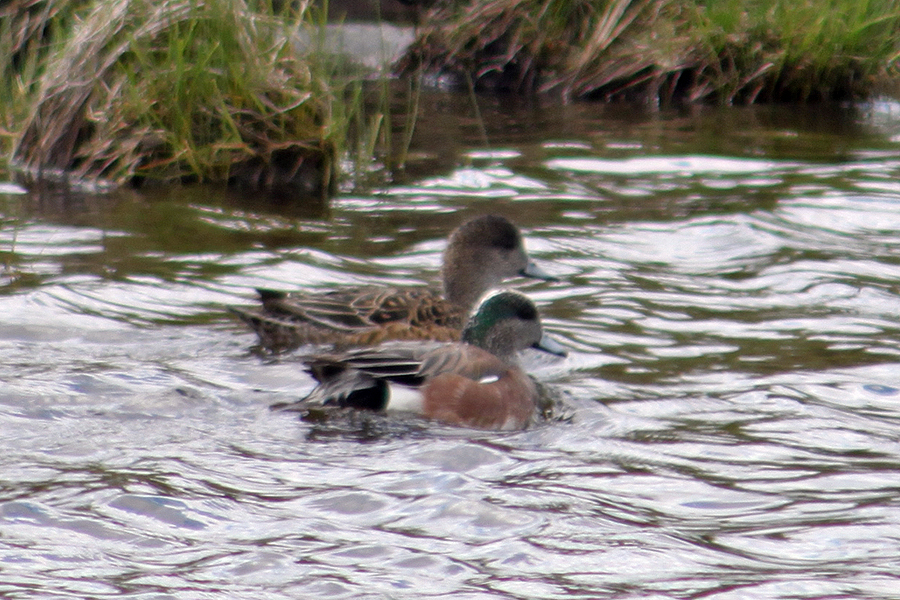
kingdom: Animalia
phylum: Chordata
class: Aves
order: Anseriformes
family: Anatidae
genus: Mareca
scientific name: Mareca americana
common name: American wigeon
